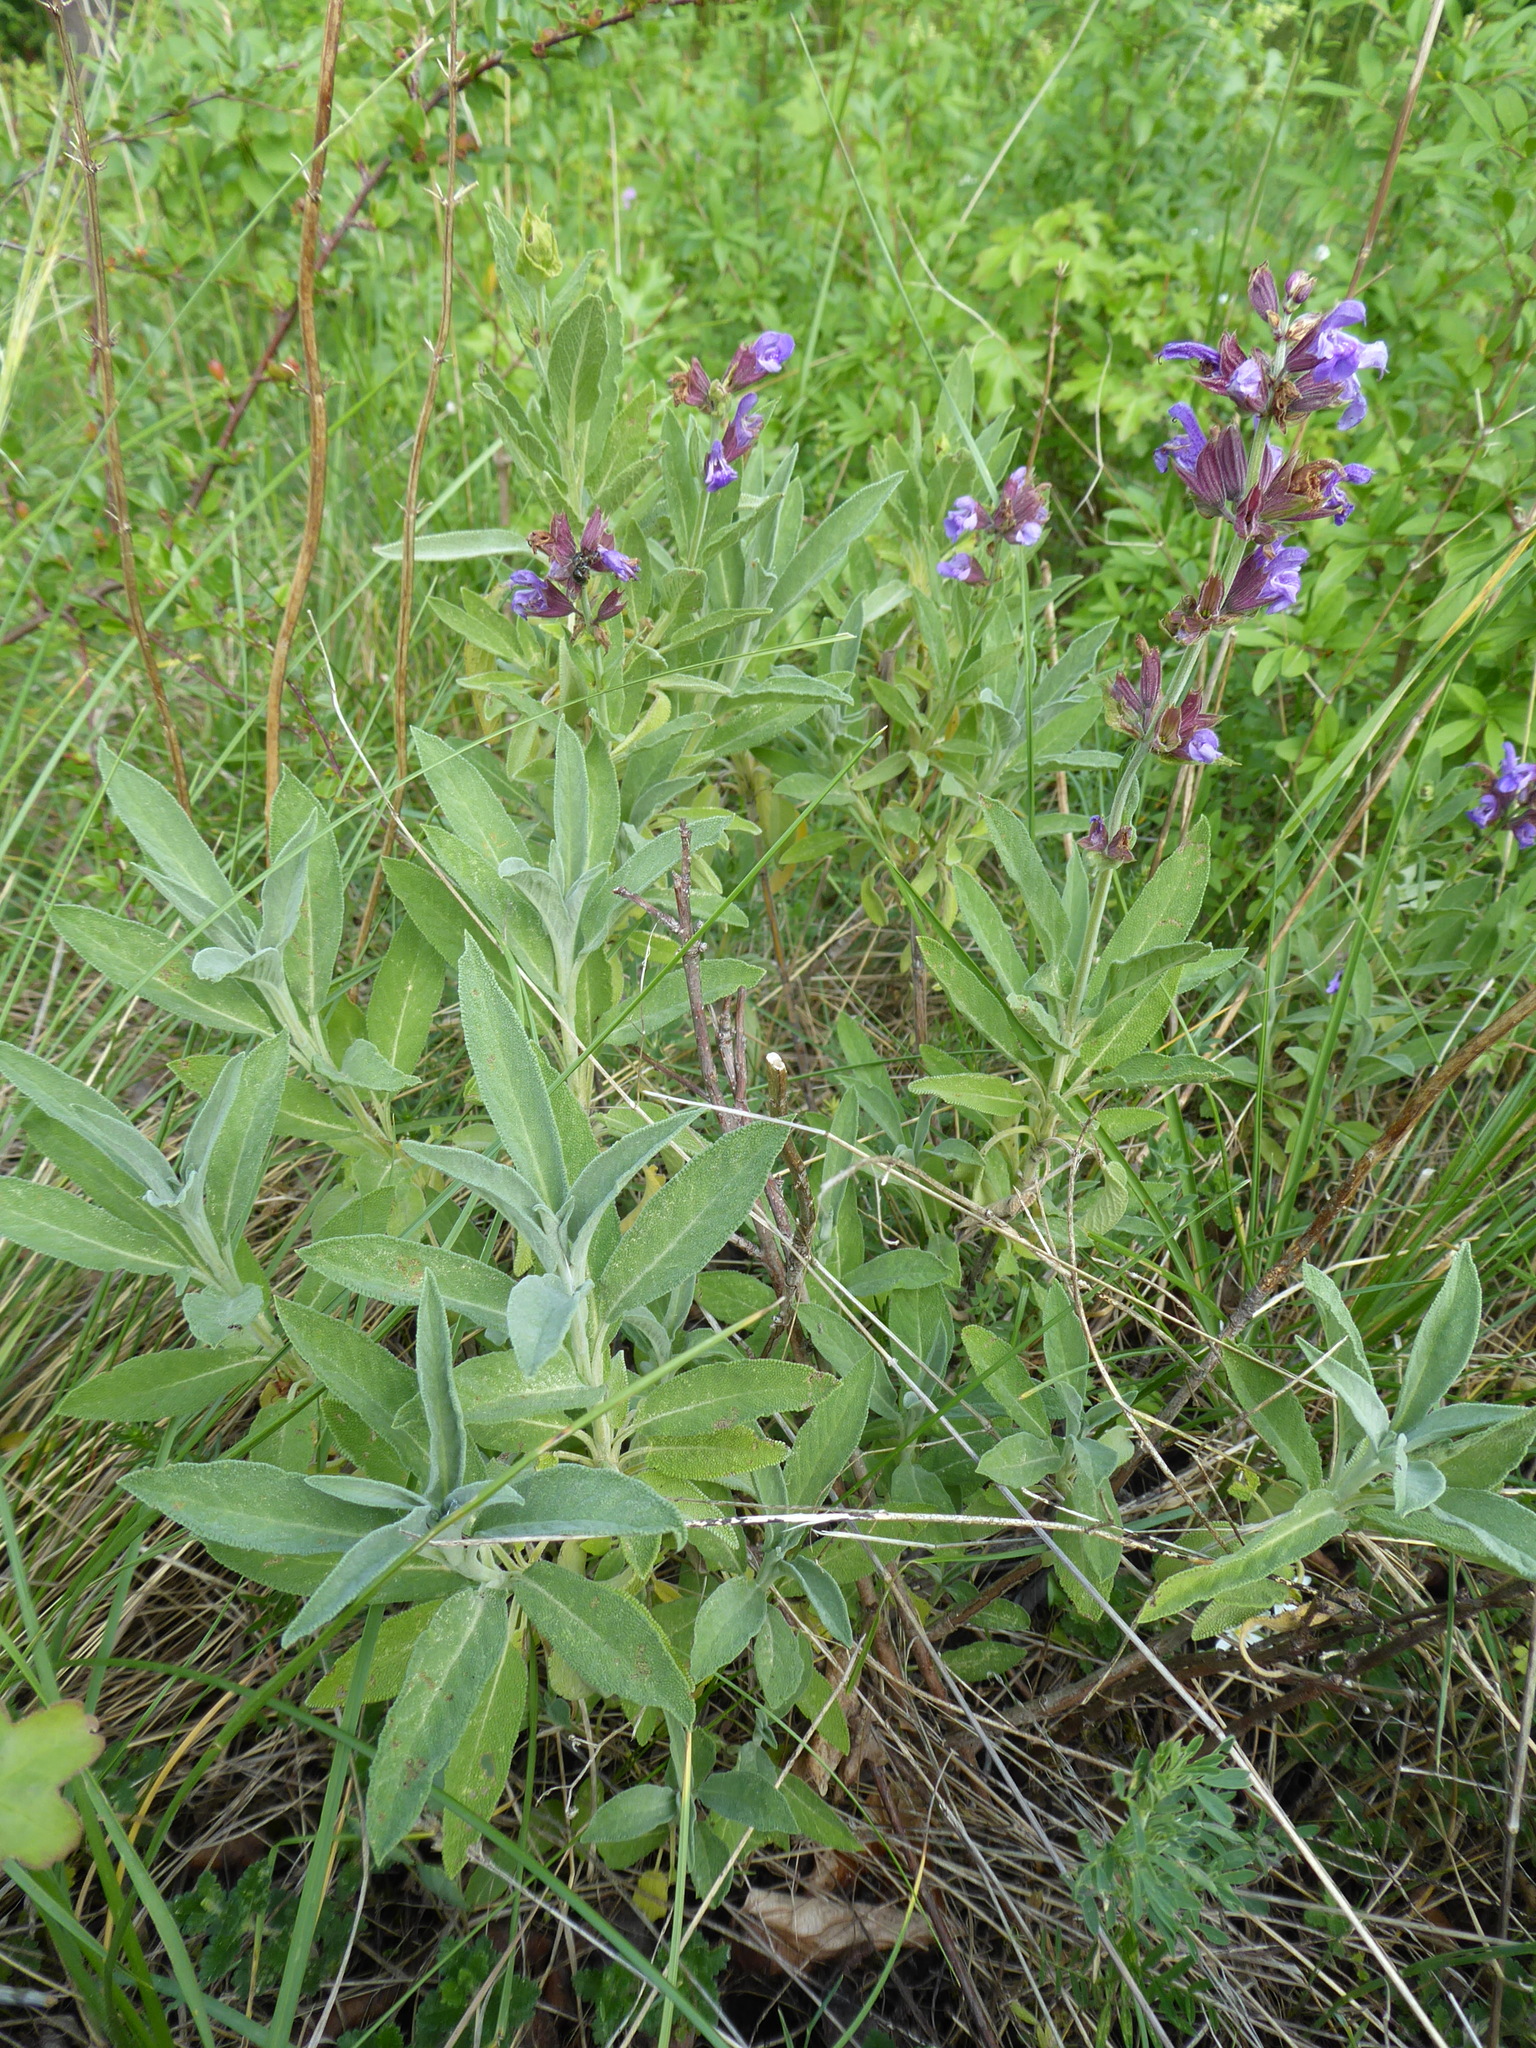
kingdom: Plantae
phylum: Tracheophyta
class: Magnoliopsida
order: Lamiales
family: Lamiaceae
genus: Salvia
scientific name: Salvia officinalis
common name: Sage
